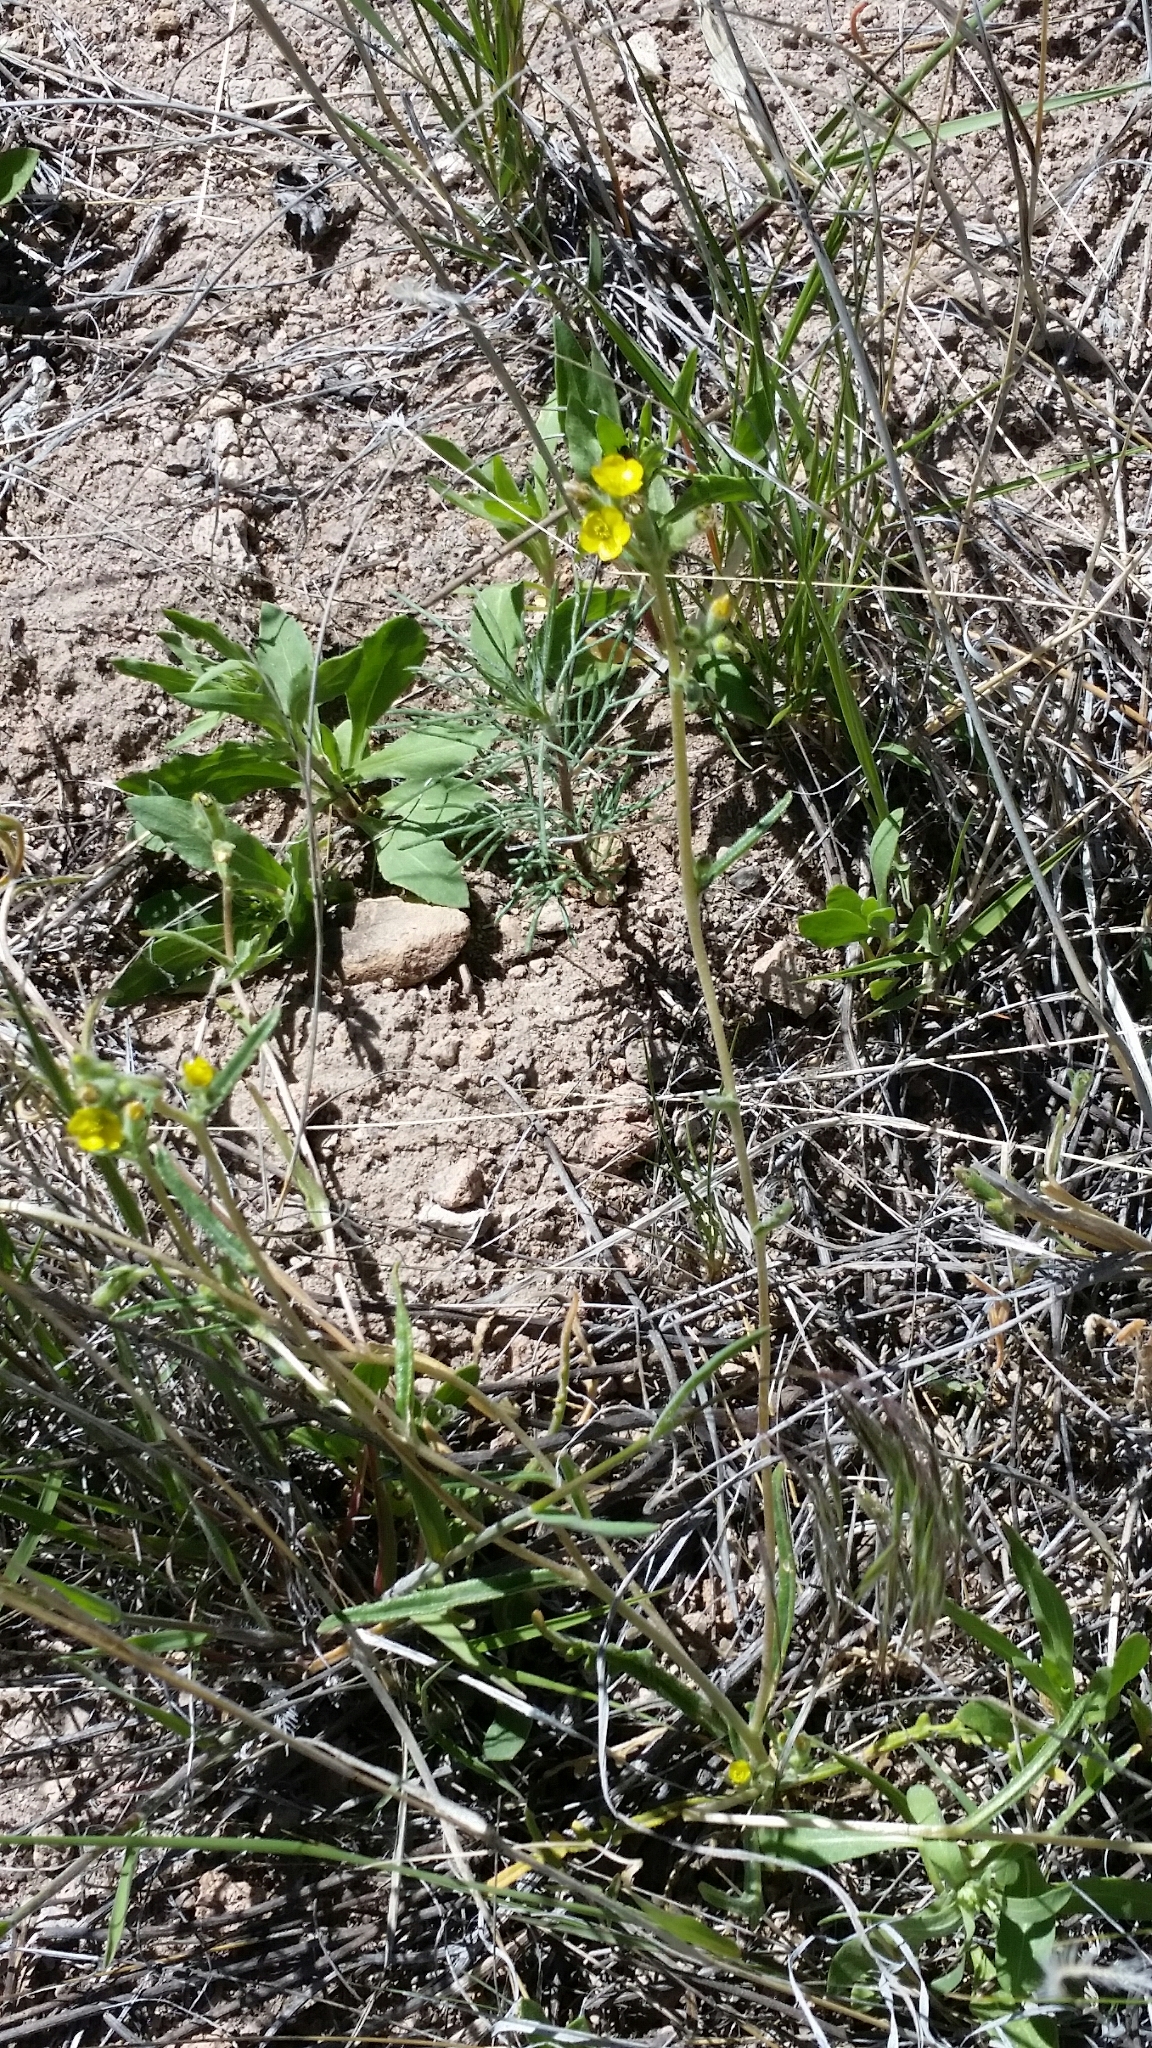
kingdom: Plantae
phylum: Tracheophyta
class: Magnoliopsida
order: Cornales
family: Loasaceae
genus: Mentzelia
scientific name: Mentzelia albicaulis
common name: White-stem blazingstar
